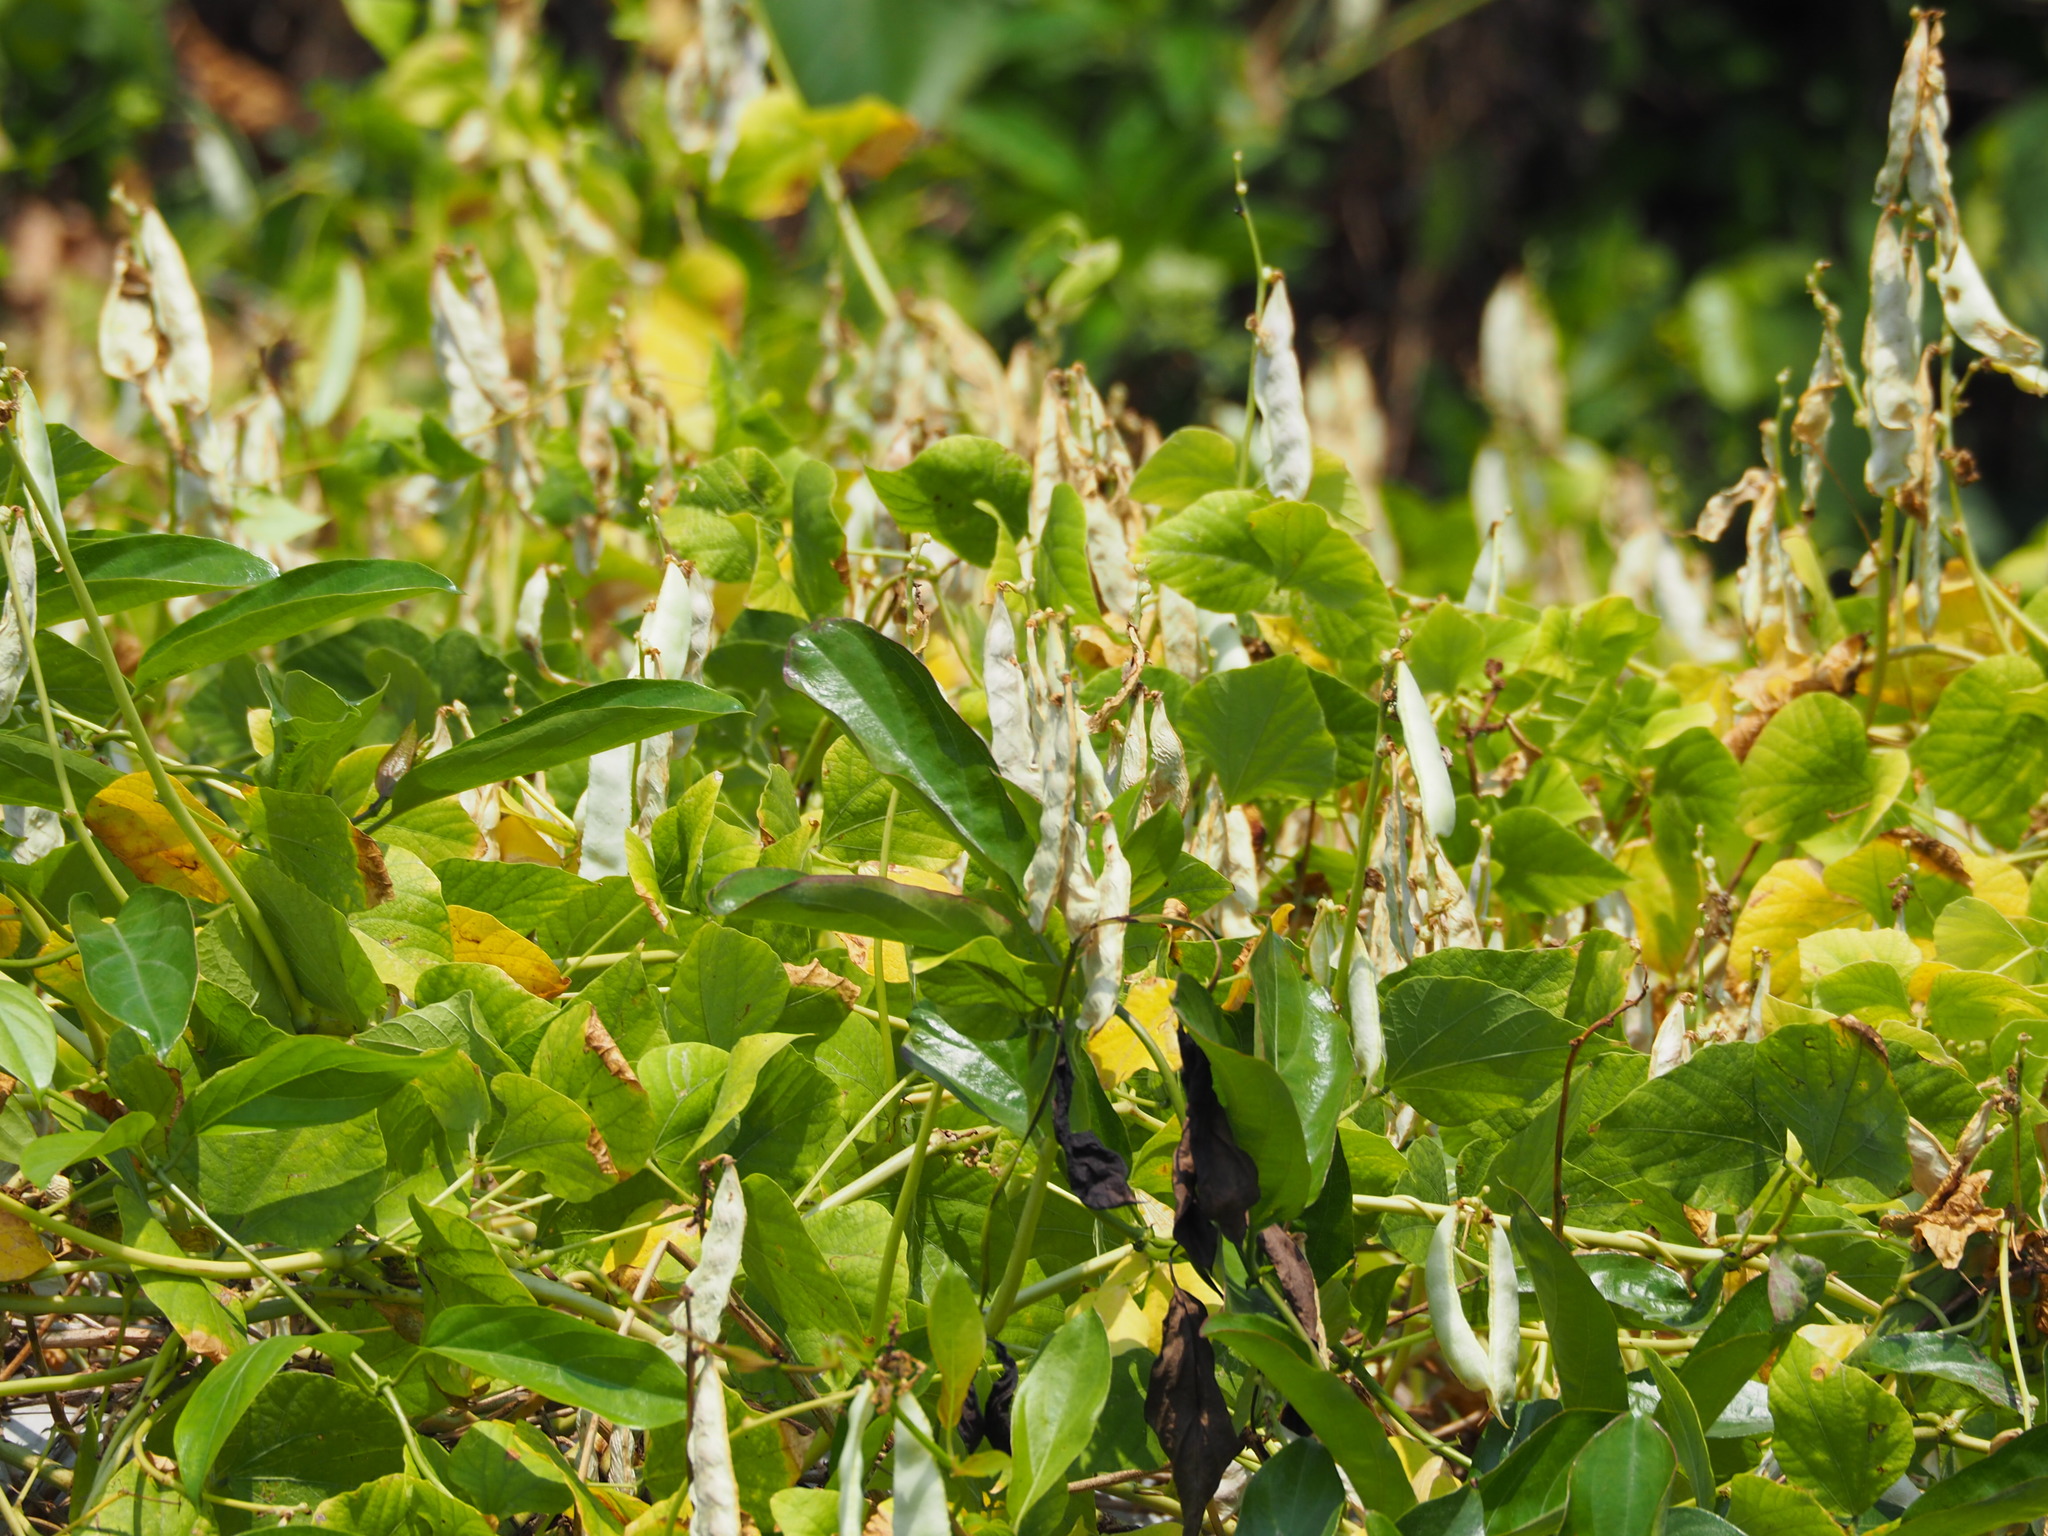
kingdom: Plantae
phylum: Tracheophyta
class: Magnoliopsida
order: Fabales
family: Fabaceae
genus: Lablab
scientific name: Lablab purpureus
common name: Lablab-bean
